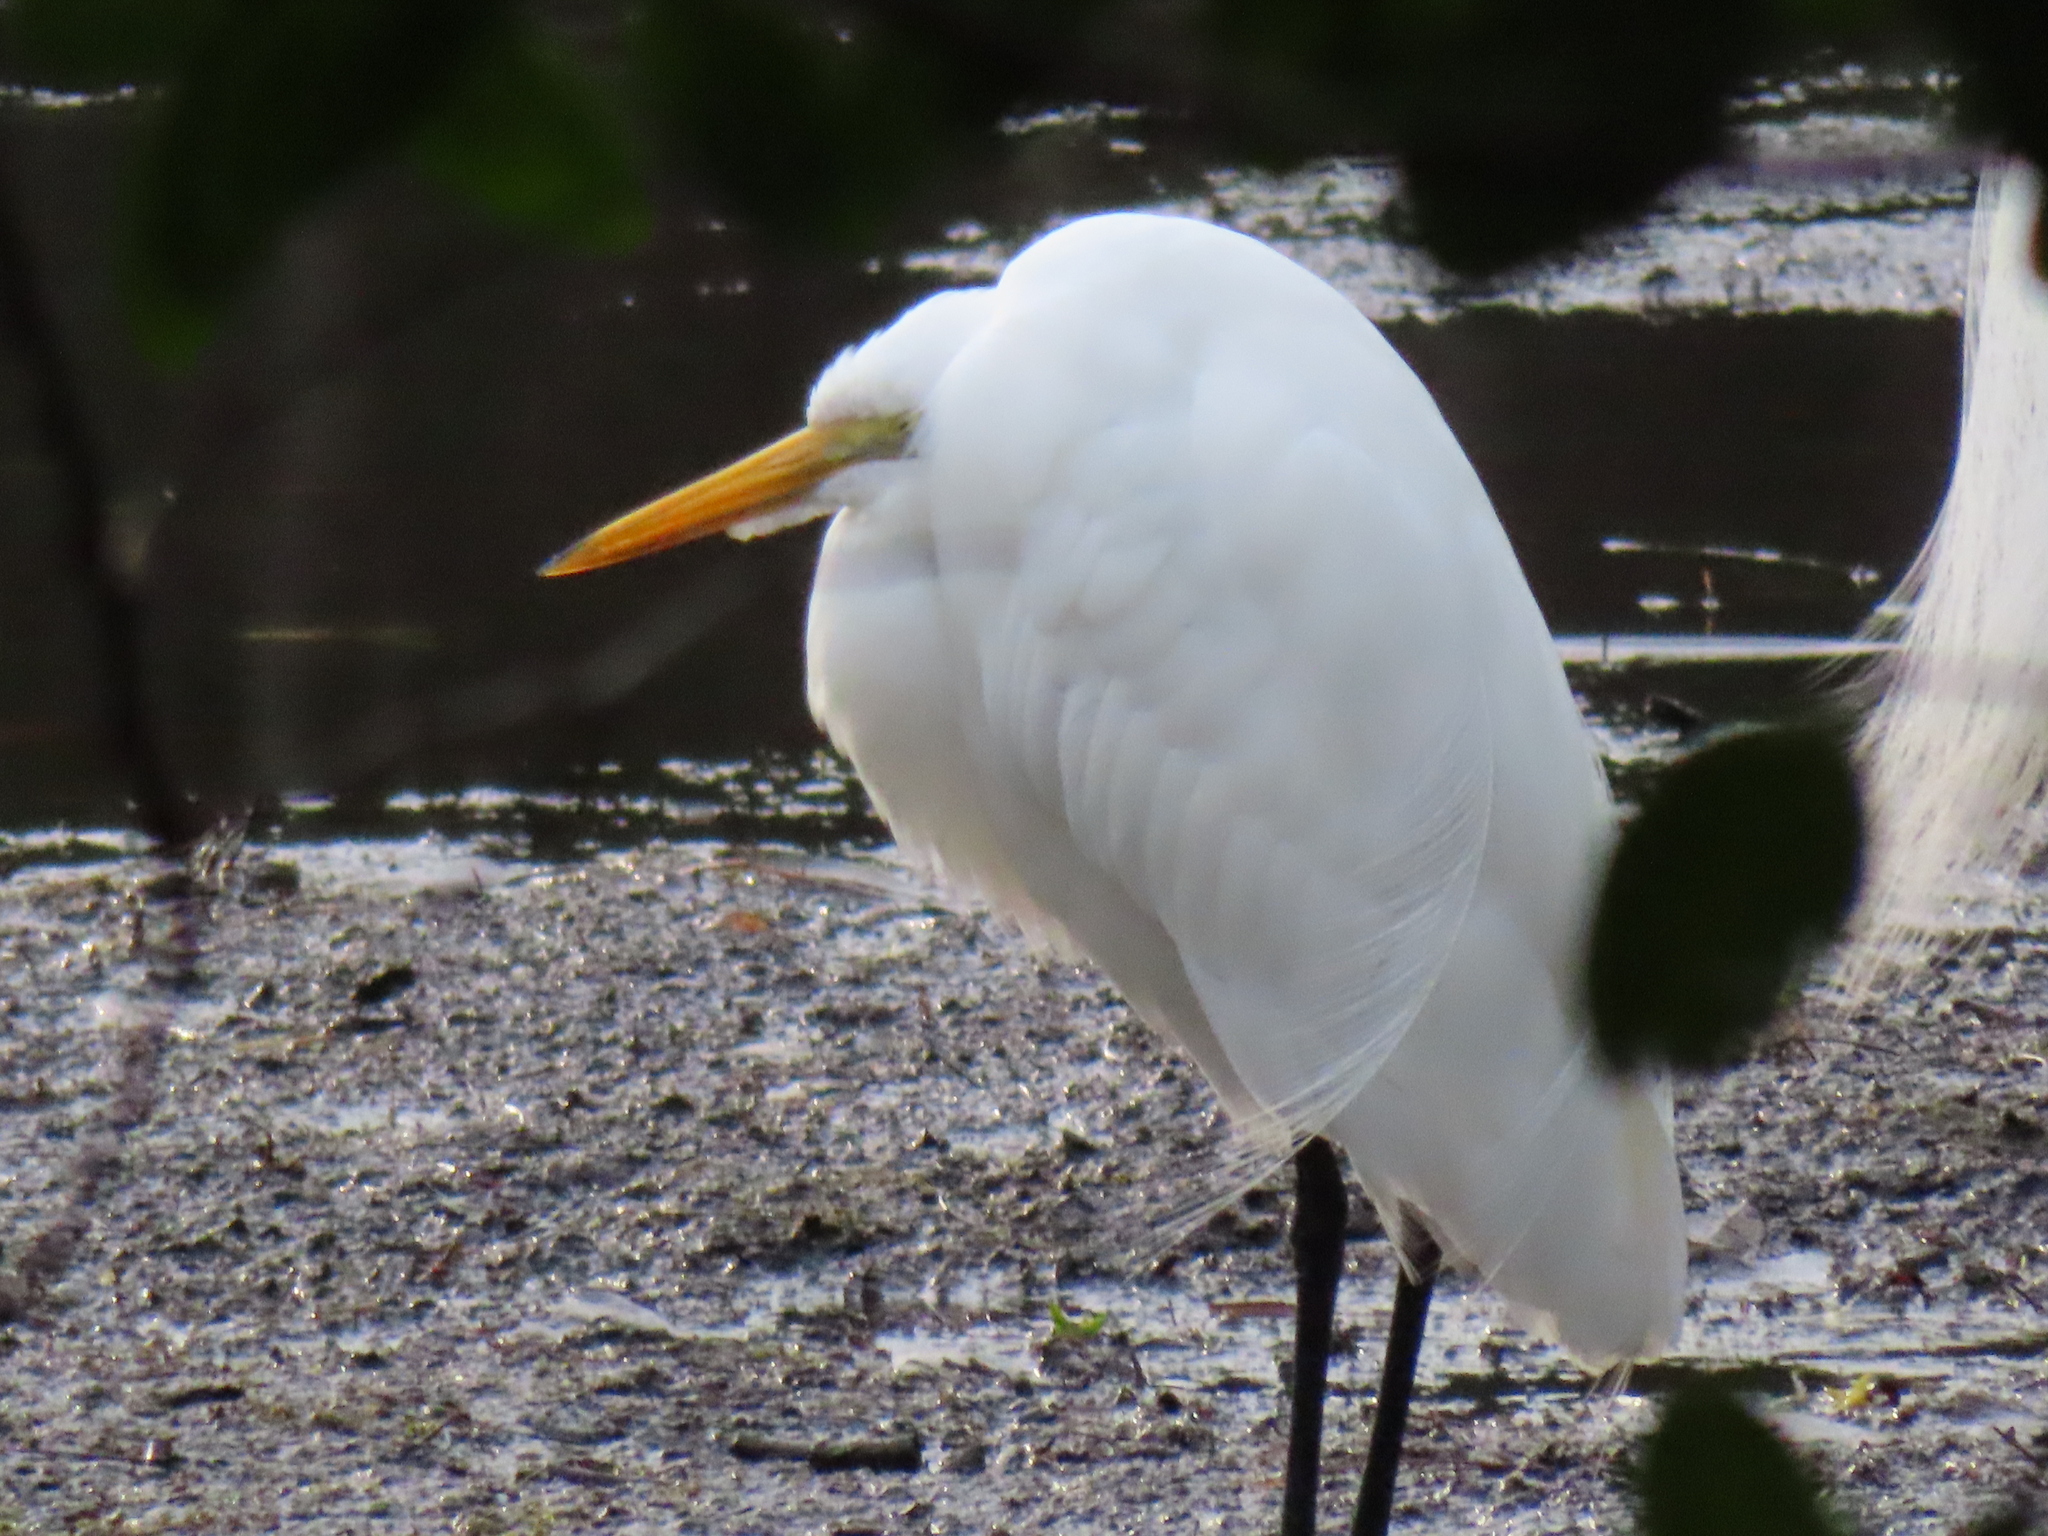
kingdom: Animalia
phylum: Chordata
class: Aves
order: Pelecaniformes
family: Ardeidae
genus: Ardea
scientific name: Ardea alba
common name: Great egret
